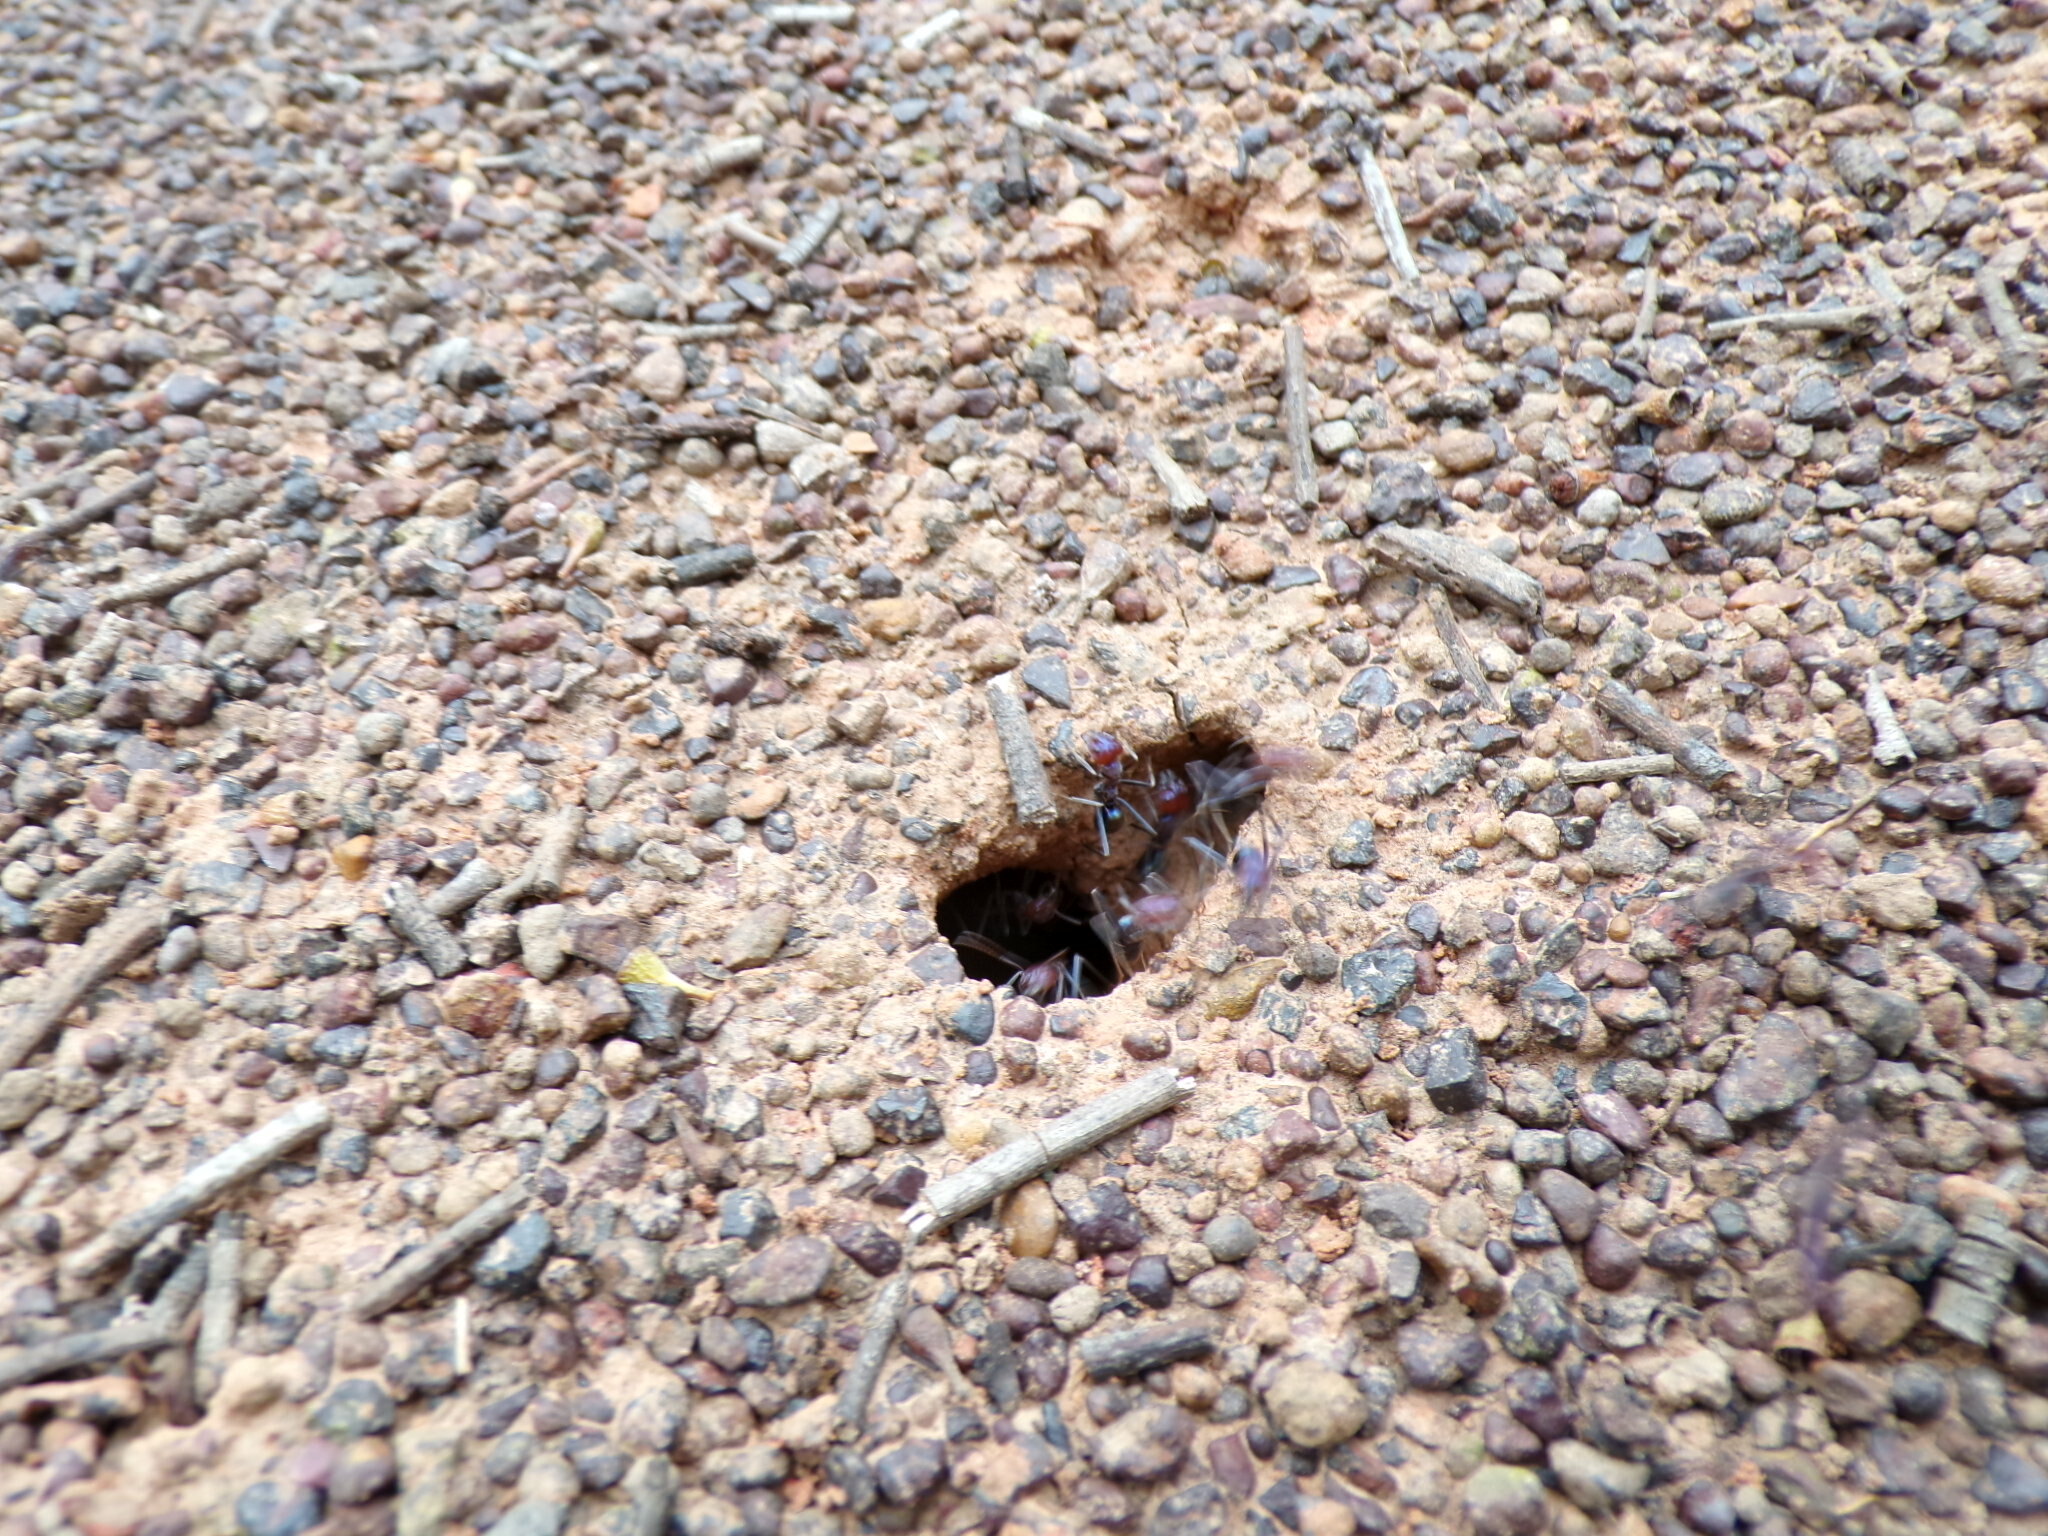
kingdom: Animalia
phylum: Arthropoda
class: Insecta
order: Hymenoptera
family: Formicidae
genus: Iridomyrmex
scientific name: Iridomyrmex purpureus
